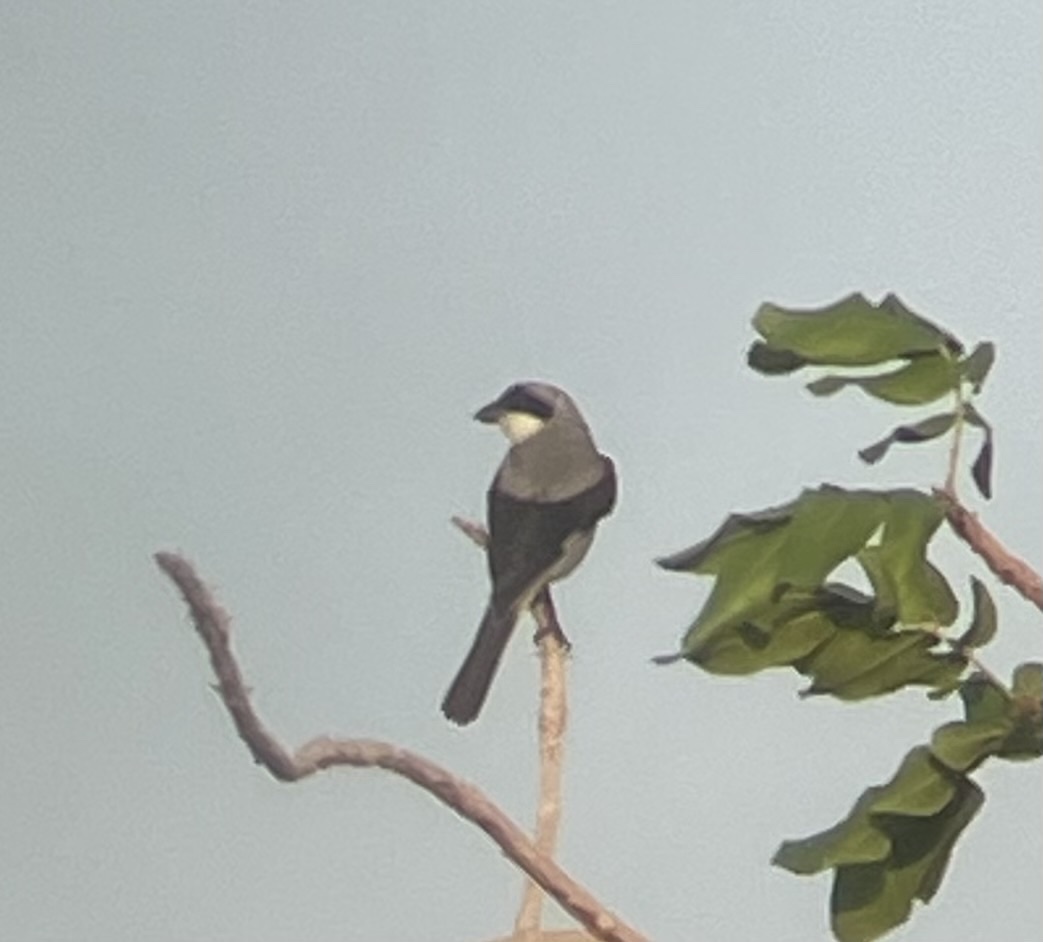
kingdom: Animalia
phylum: Chordata
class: Aves
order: Passeriformes
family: Laniidae
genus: Lanius
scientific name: Lanius minor
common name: Lesser grey shrike
